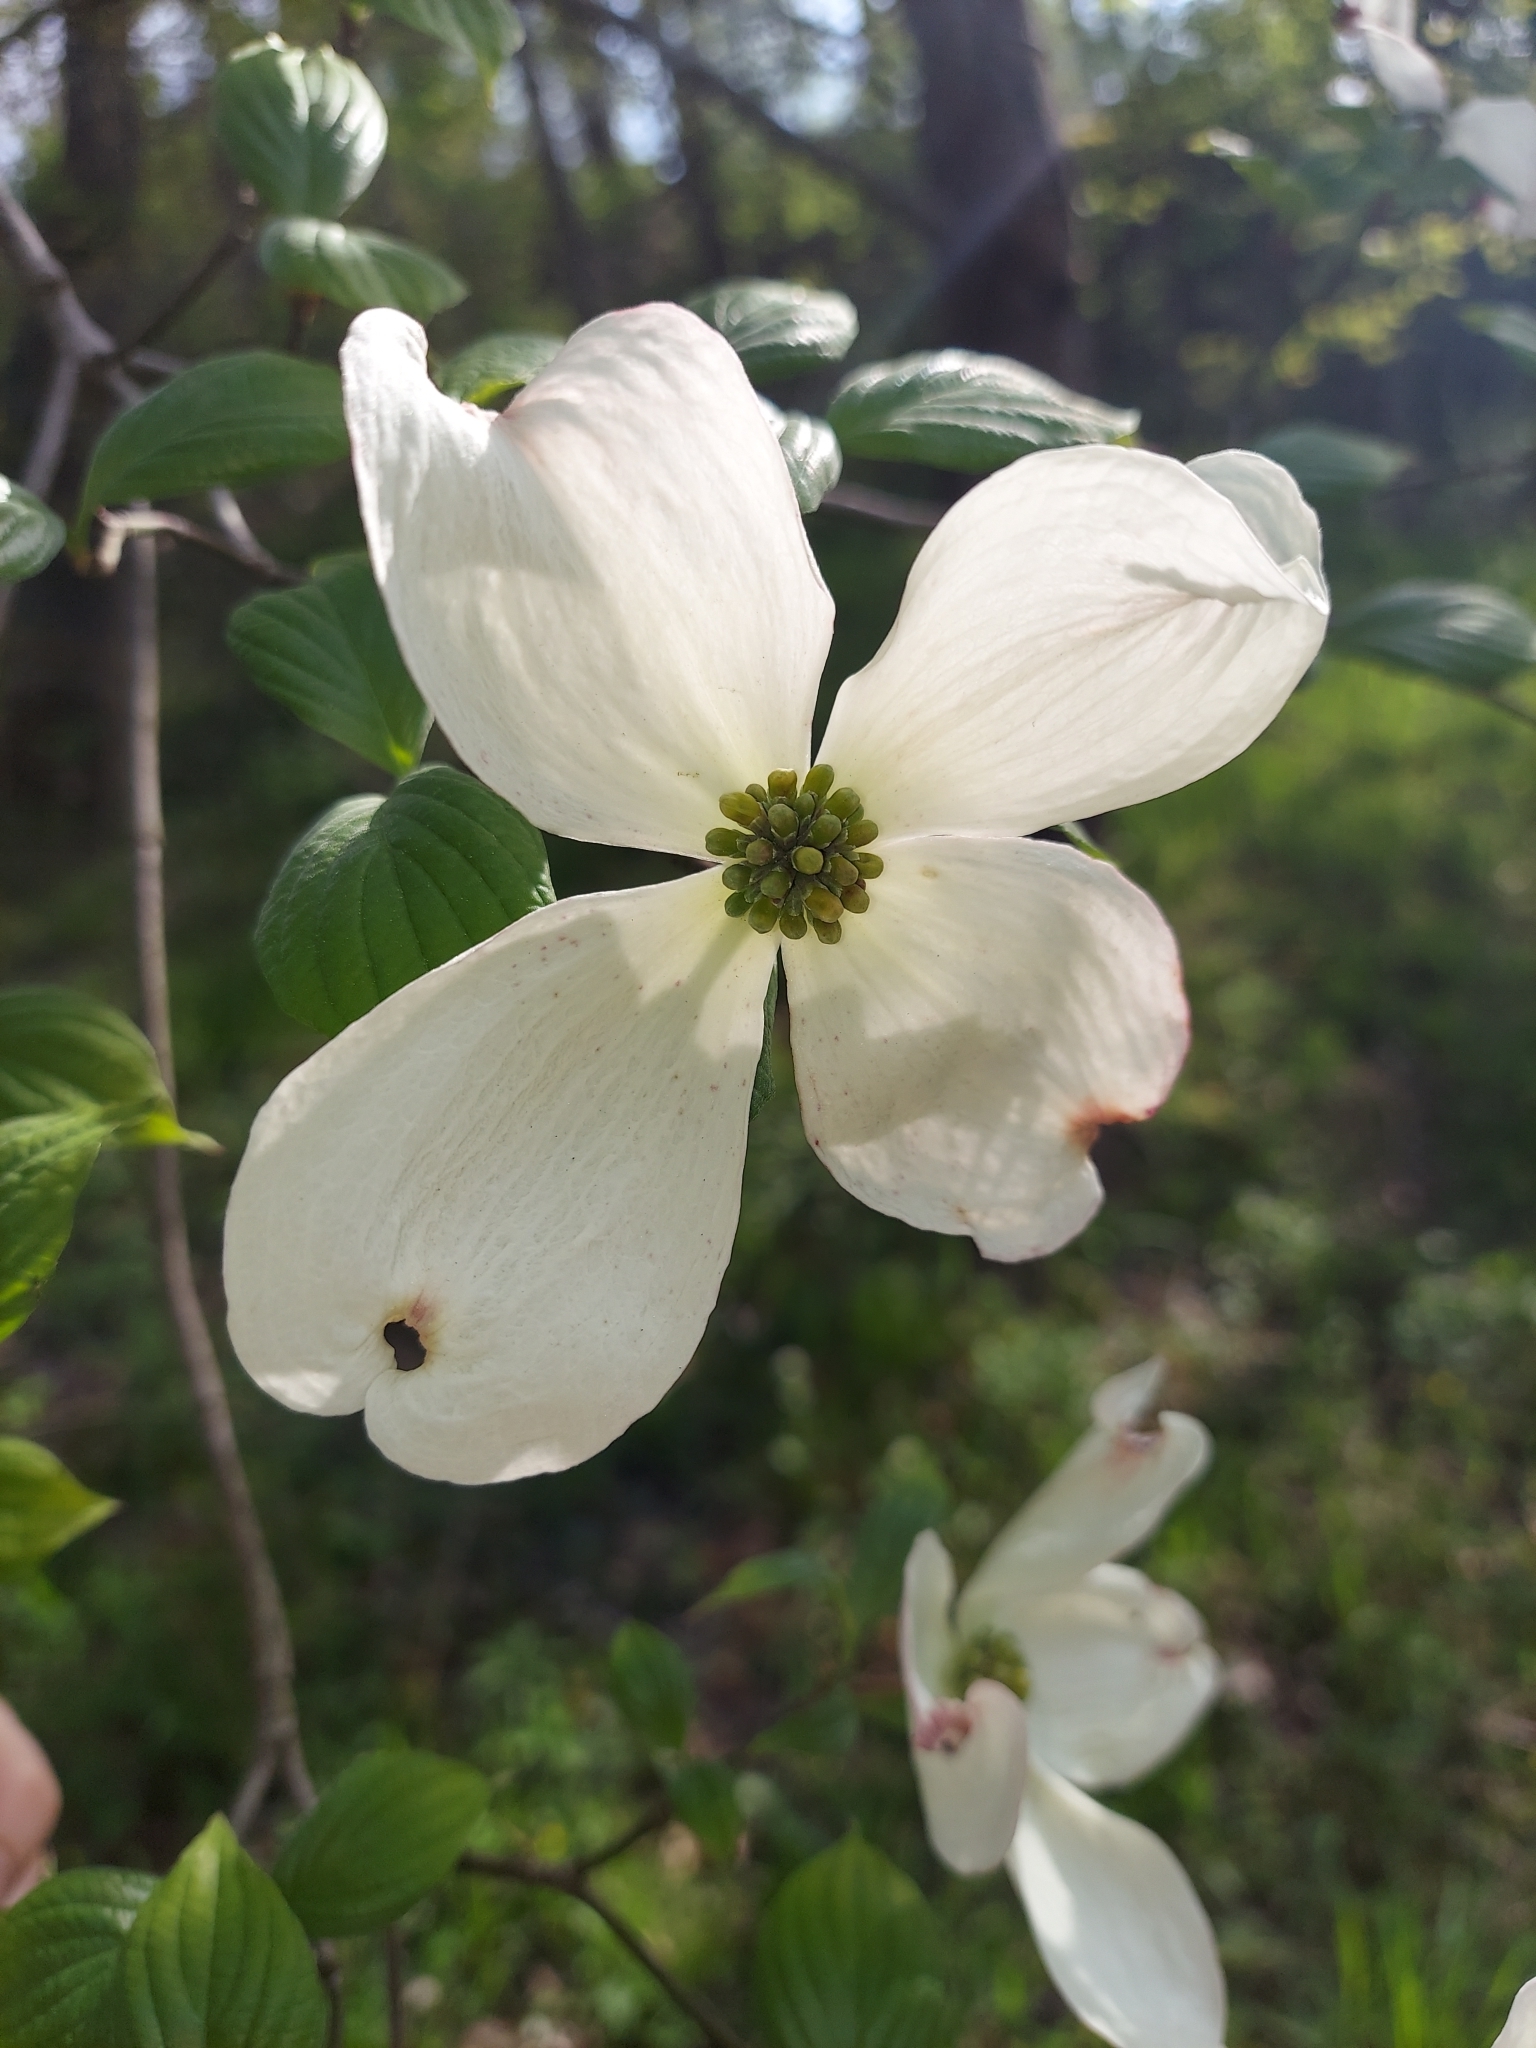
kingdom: Plantae
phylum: Tracheophyta
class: Magnoliopsida
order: Cornales
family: Cornaceae
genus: Cornus
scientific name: Cornus florida
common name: Flowering dogwood
